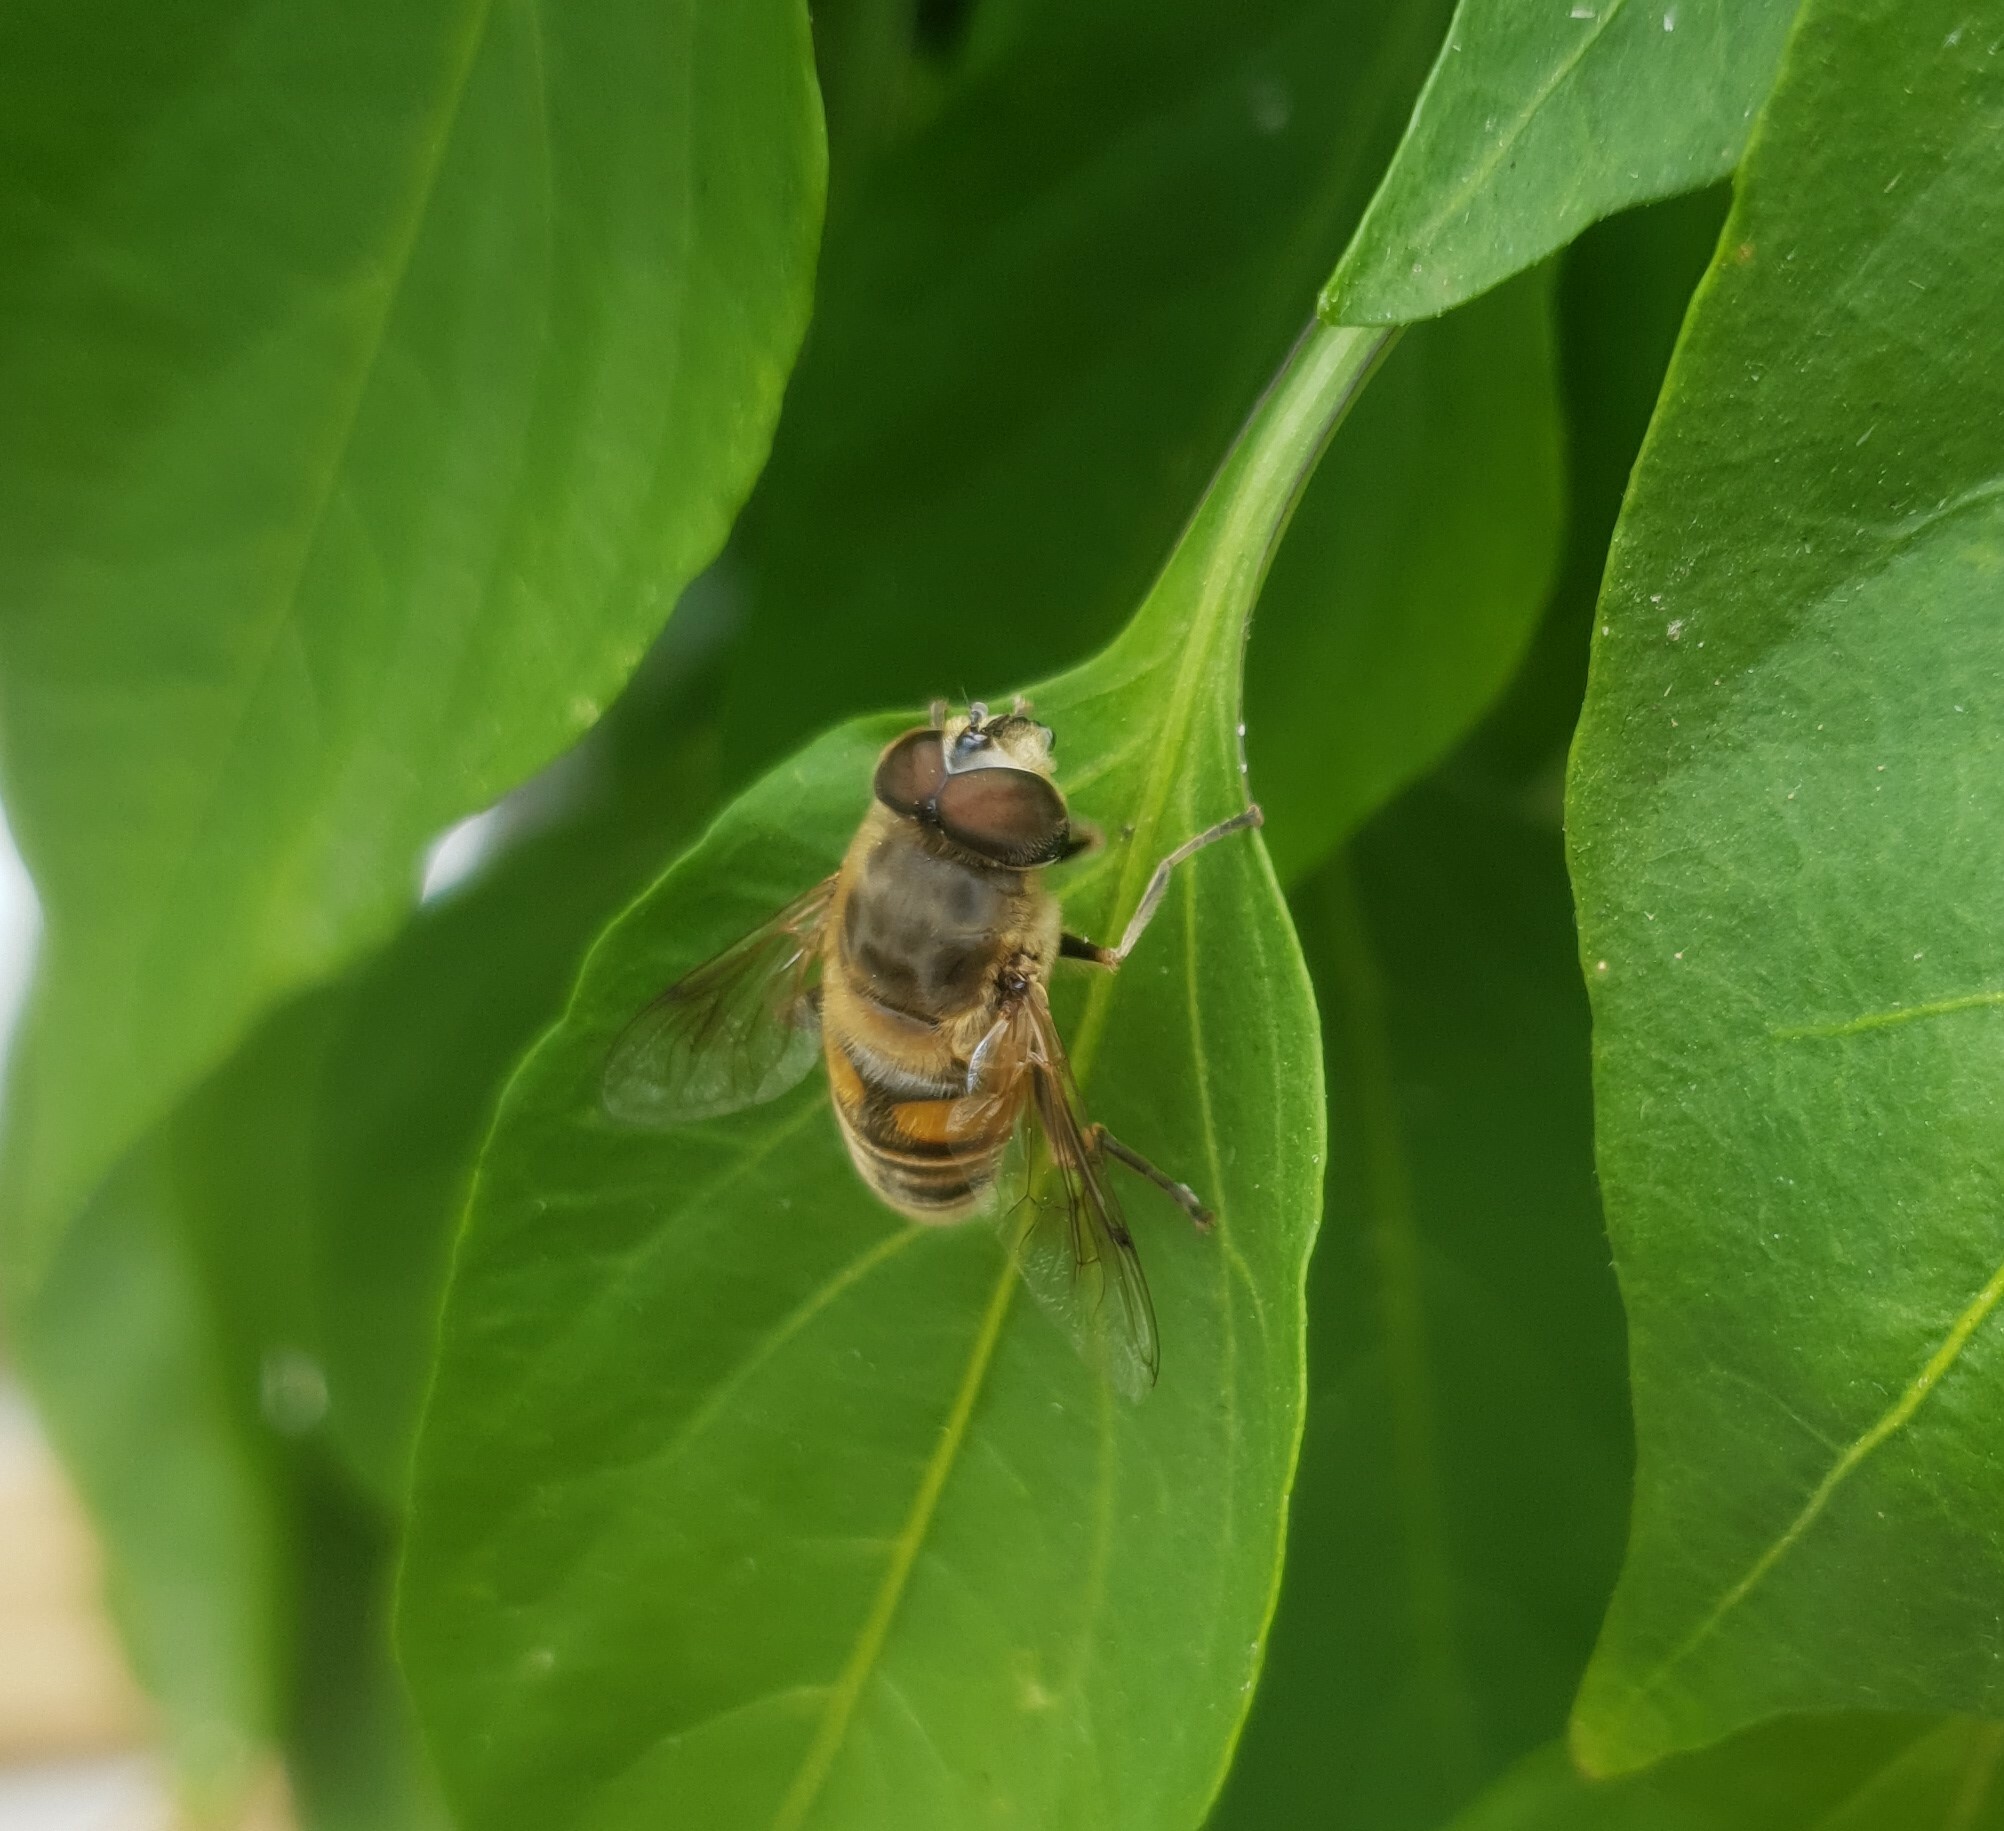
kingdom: Animalia
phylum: Arthropoda
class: Insecta
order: Diptera
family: Syrphidae
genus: Eristalis
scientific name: Eristalis tenax
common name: Drone fly
